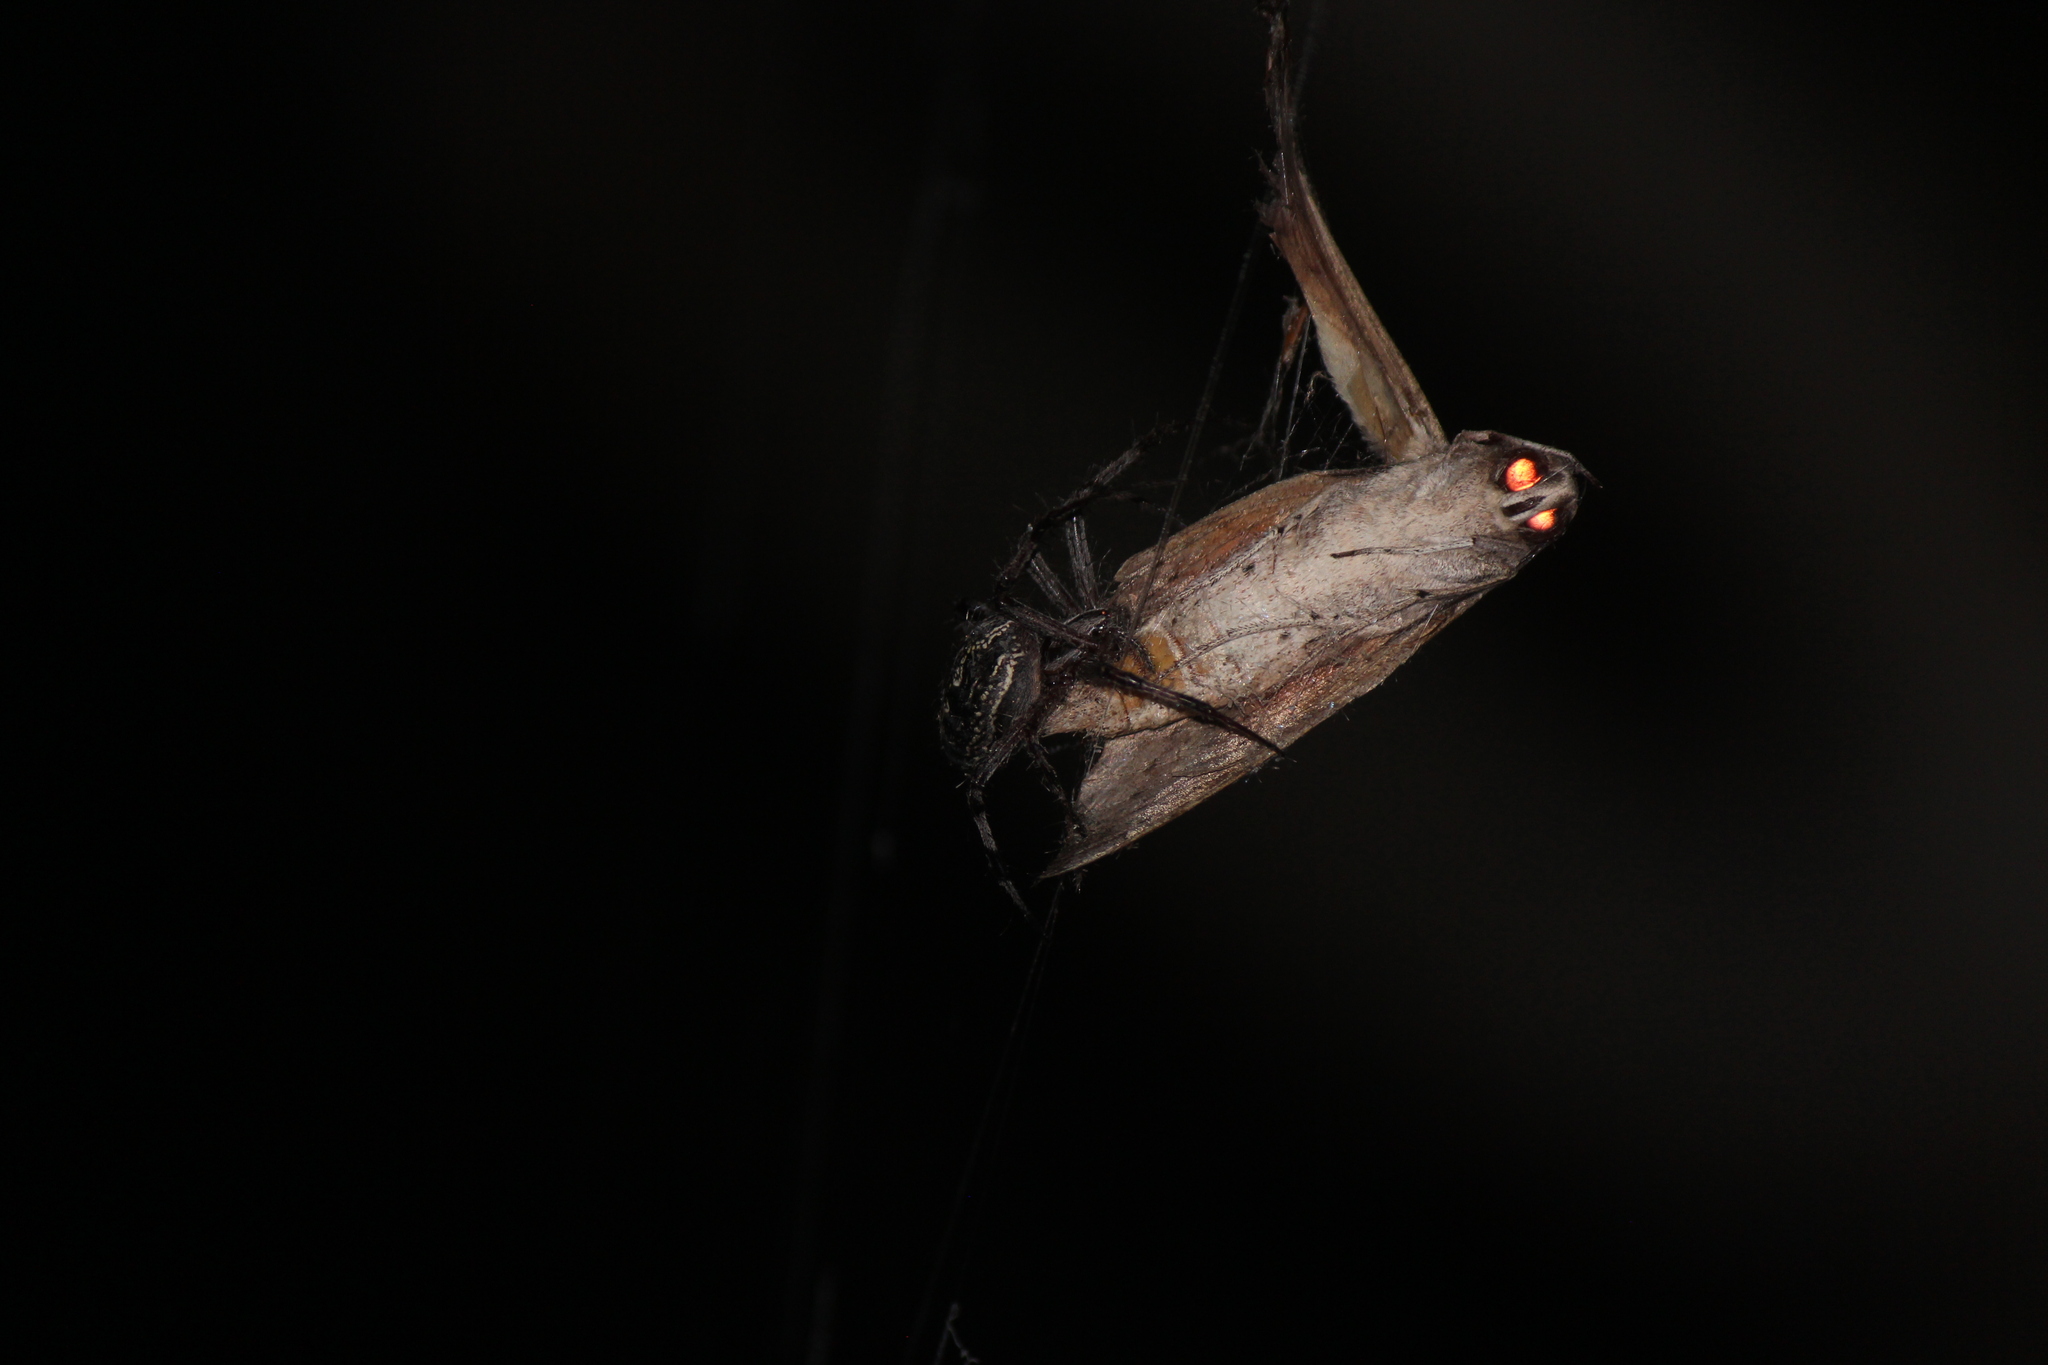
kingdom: Animalia
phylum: Arthropoda
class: Arachnida
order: Araneae
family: Araneidae
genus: Neoscona
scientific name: Neoscona oaxacensis
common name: Orb weavers
